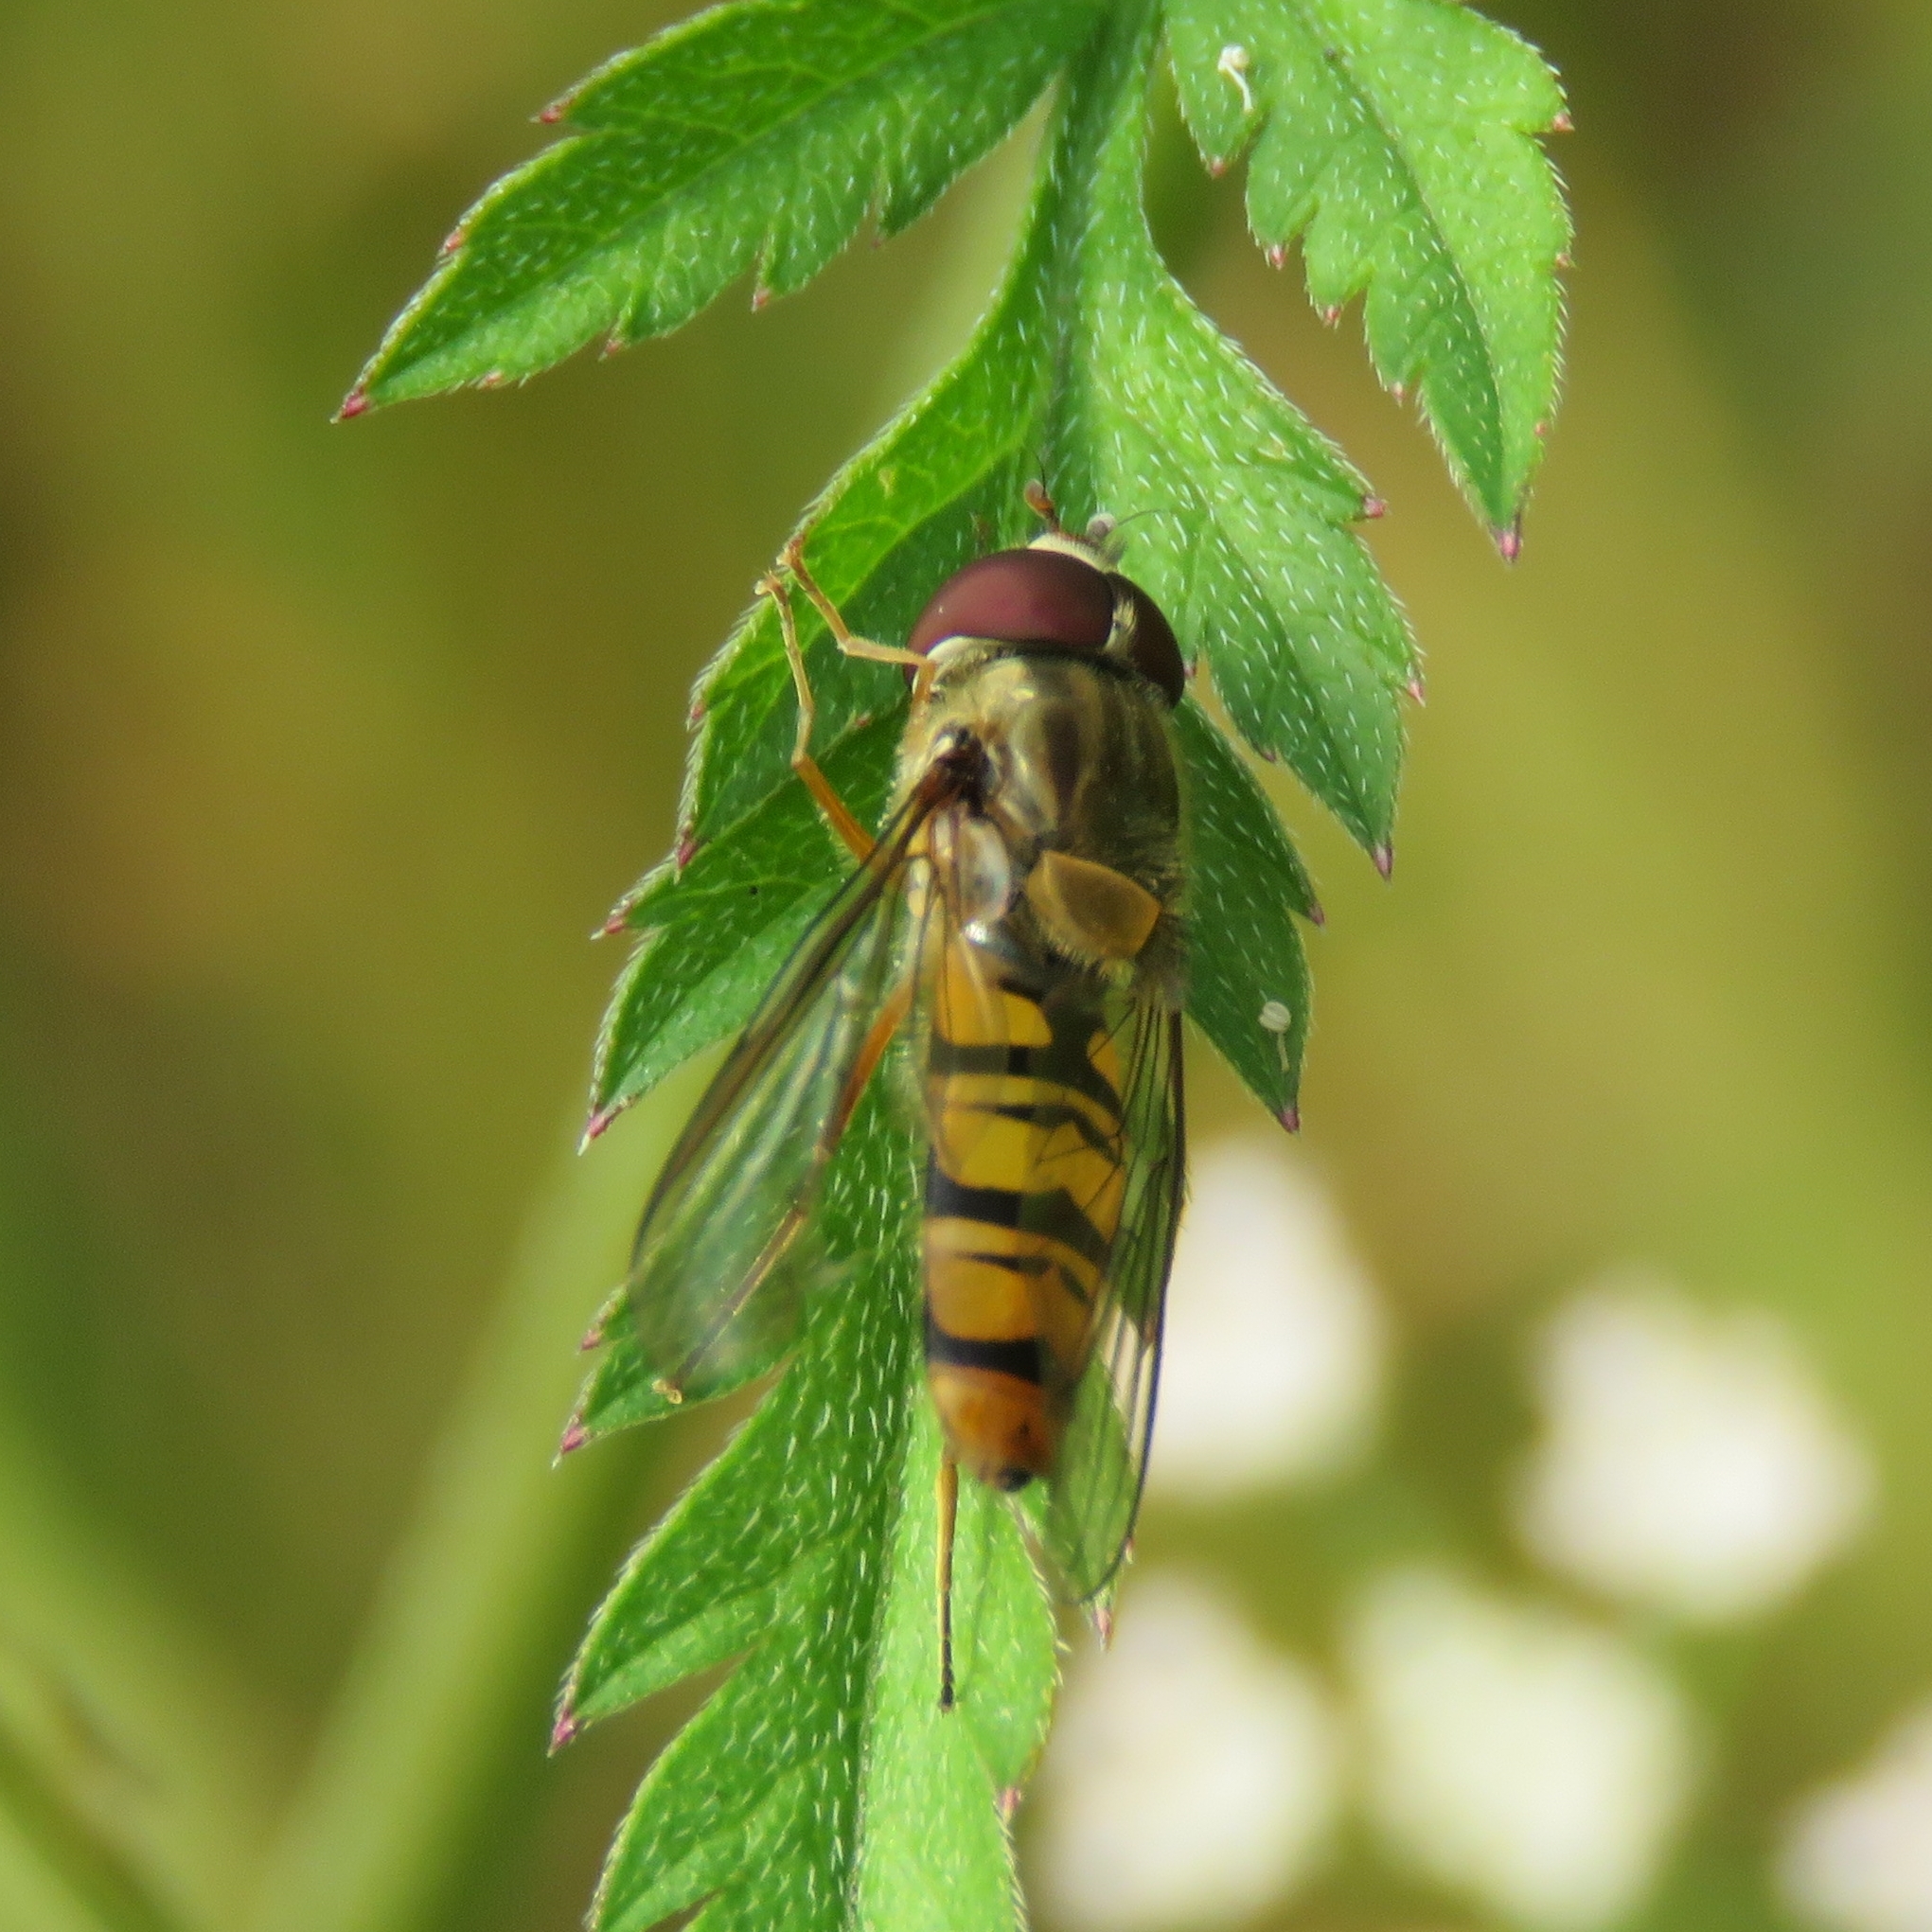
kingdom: Animalia
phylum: Arthropoda
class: Insecta
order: Diptera
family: Syrphidae
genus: Episyrphus
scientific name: Episyrphus balteatus
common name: Marmalade hoverfly
